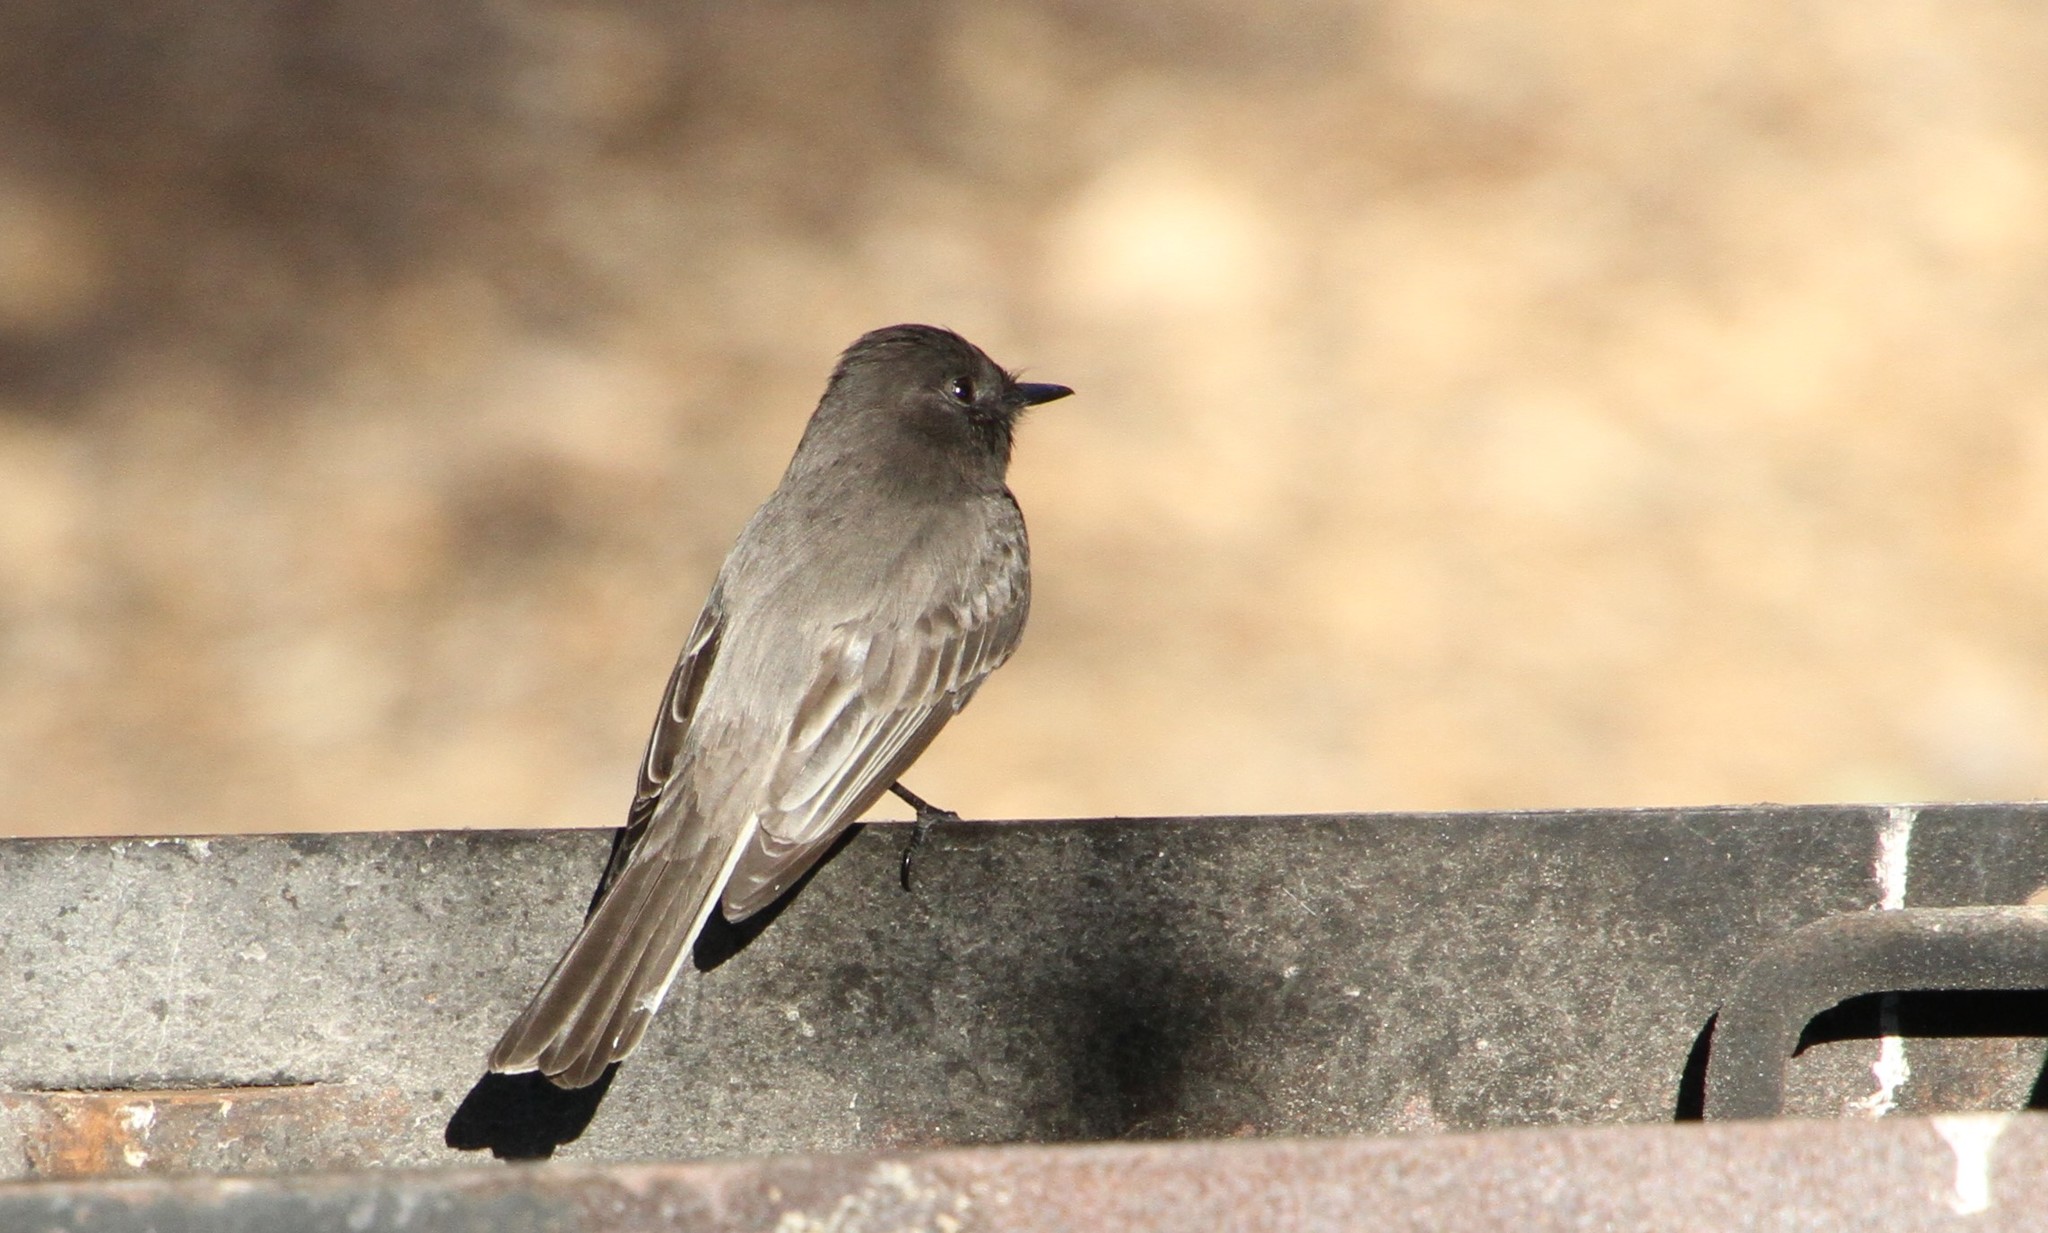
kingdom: Animalia
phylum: Chordata
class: Aves
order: Passeriformes
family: Tyrannidae
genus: Sayornis
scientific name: Sayornis nigricans
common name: Black phoebe
